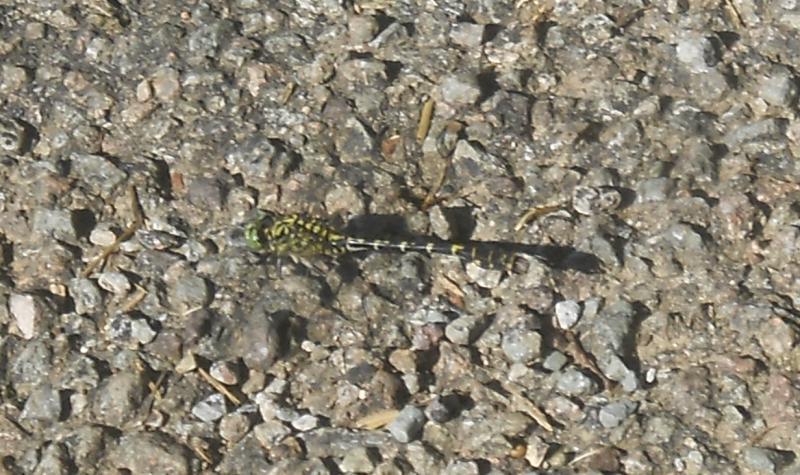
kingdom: Animalia
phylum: Arthropoda
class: Insecta
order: Odonata
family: Gomphidae
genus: Onychogomphus
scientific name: Onychogomphus forcipatus
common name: Small pincertail
